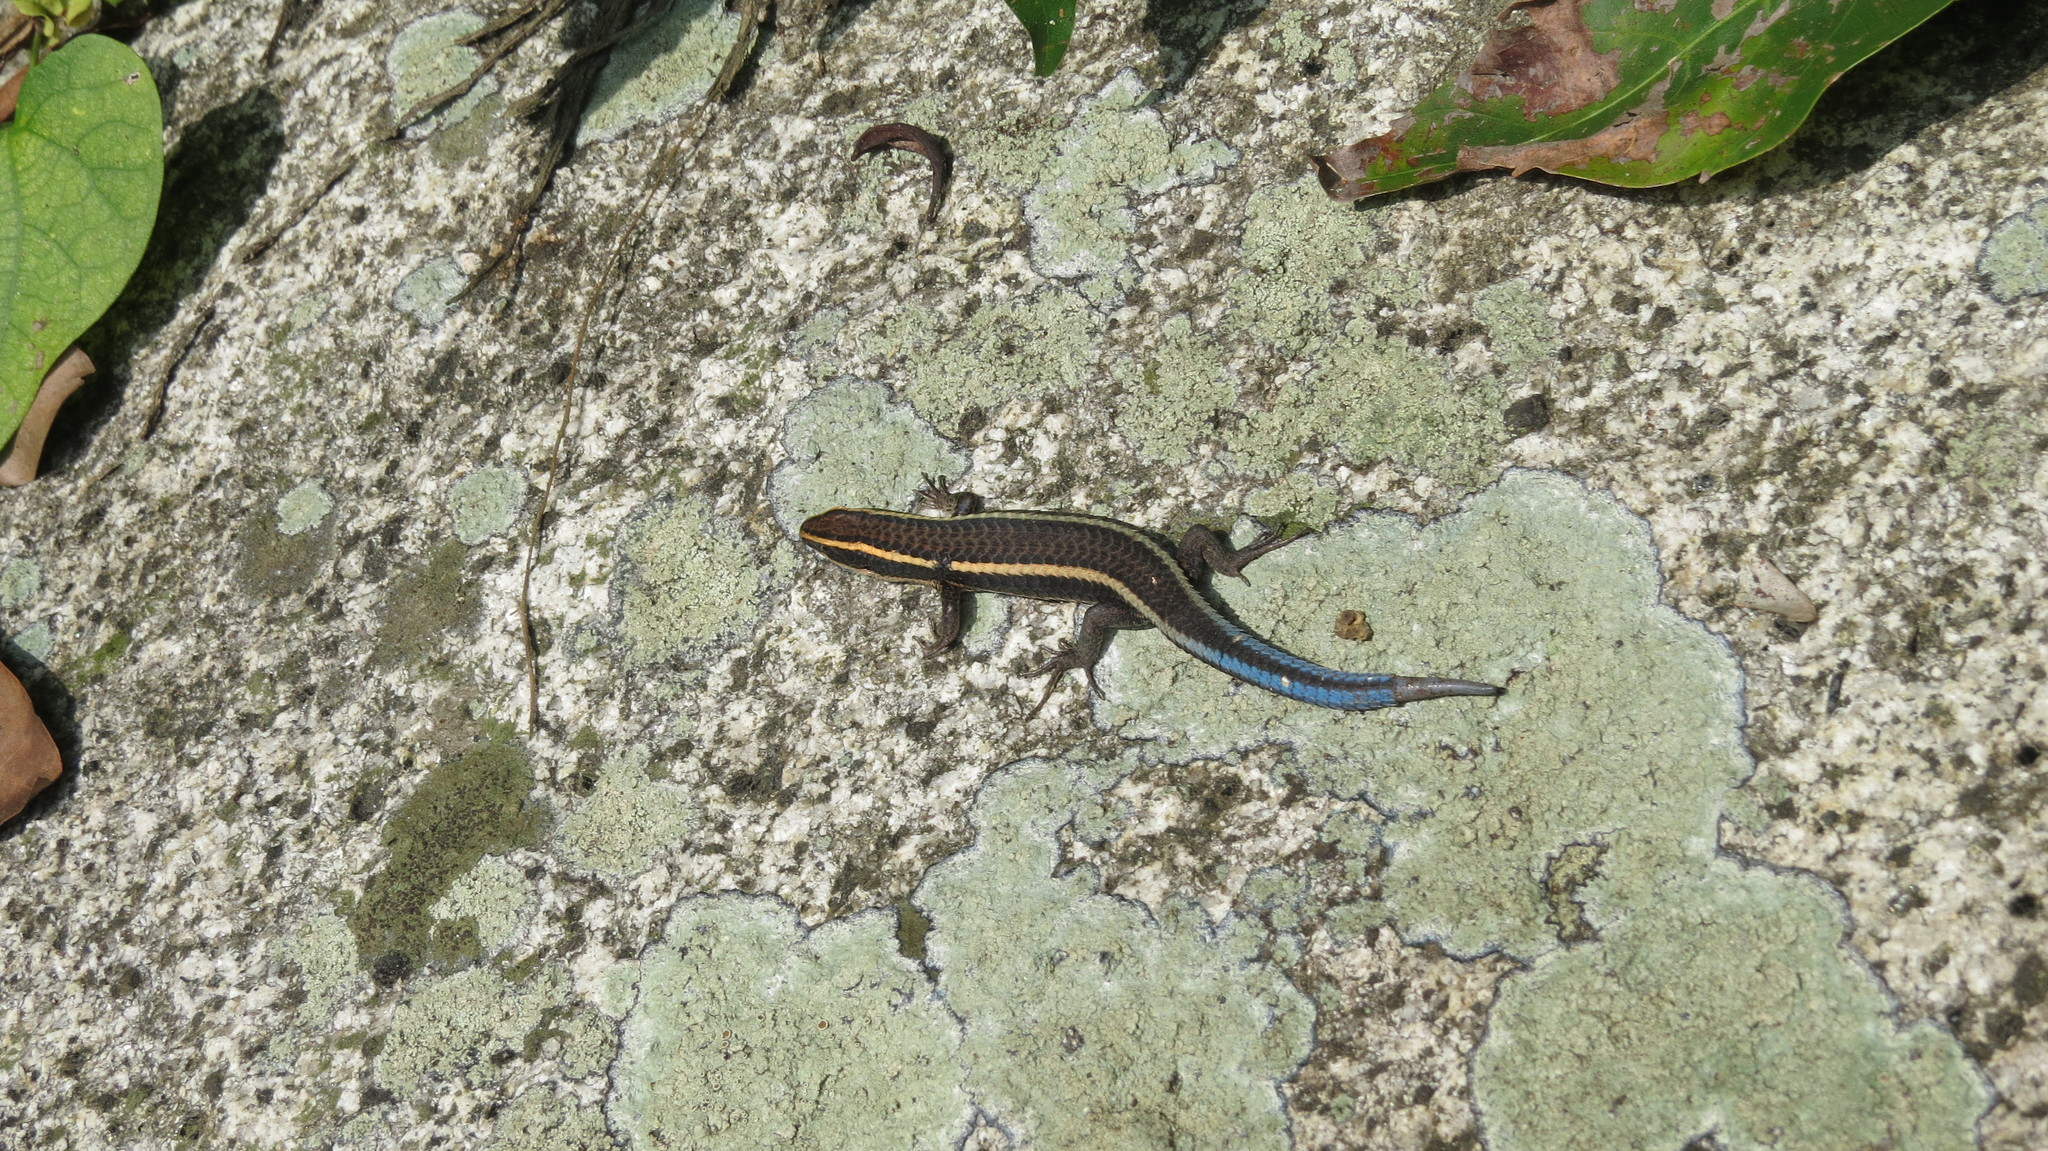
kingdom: Animalia
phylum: Chordata
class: Squamata
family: Gymnophthalmidae
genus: Tretioscincus
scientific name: Tretioscincus bifasciatus
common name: Rio magdalena tegu
